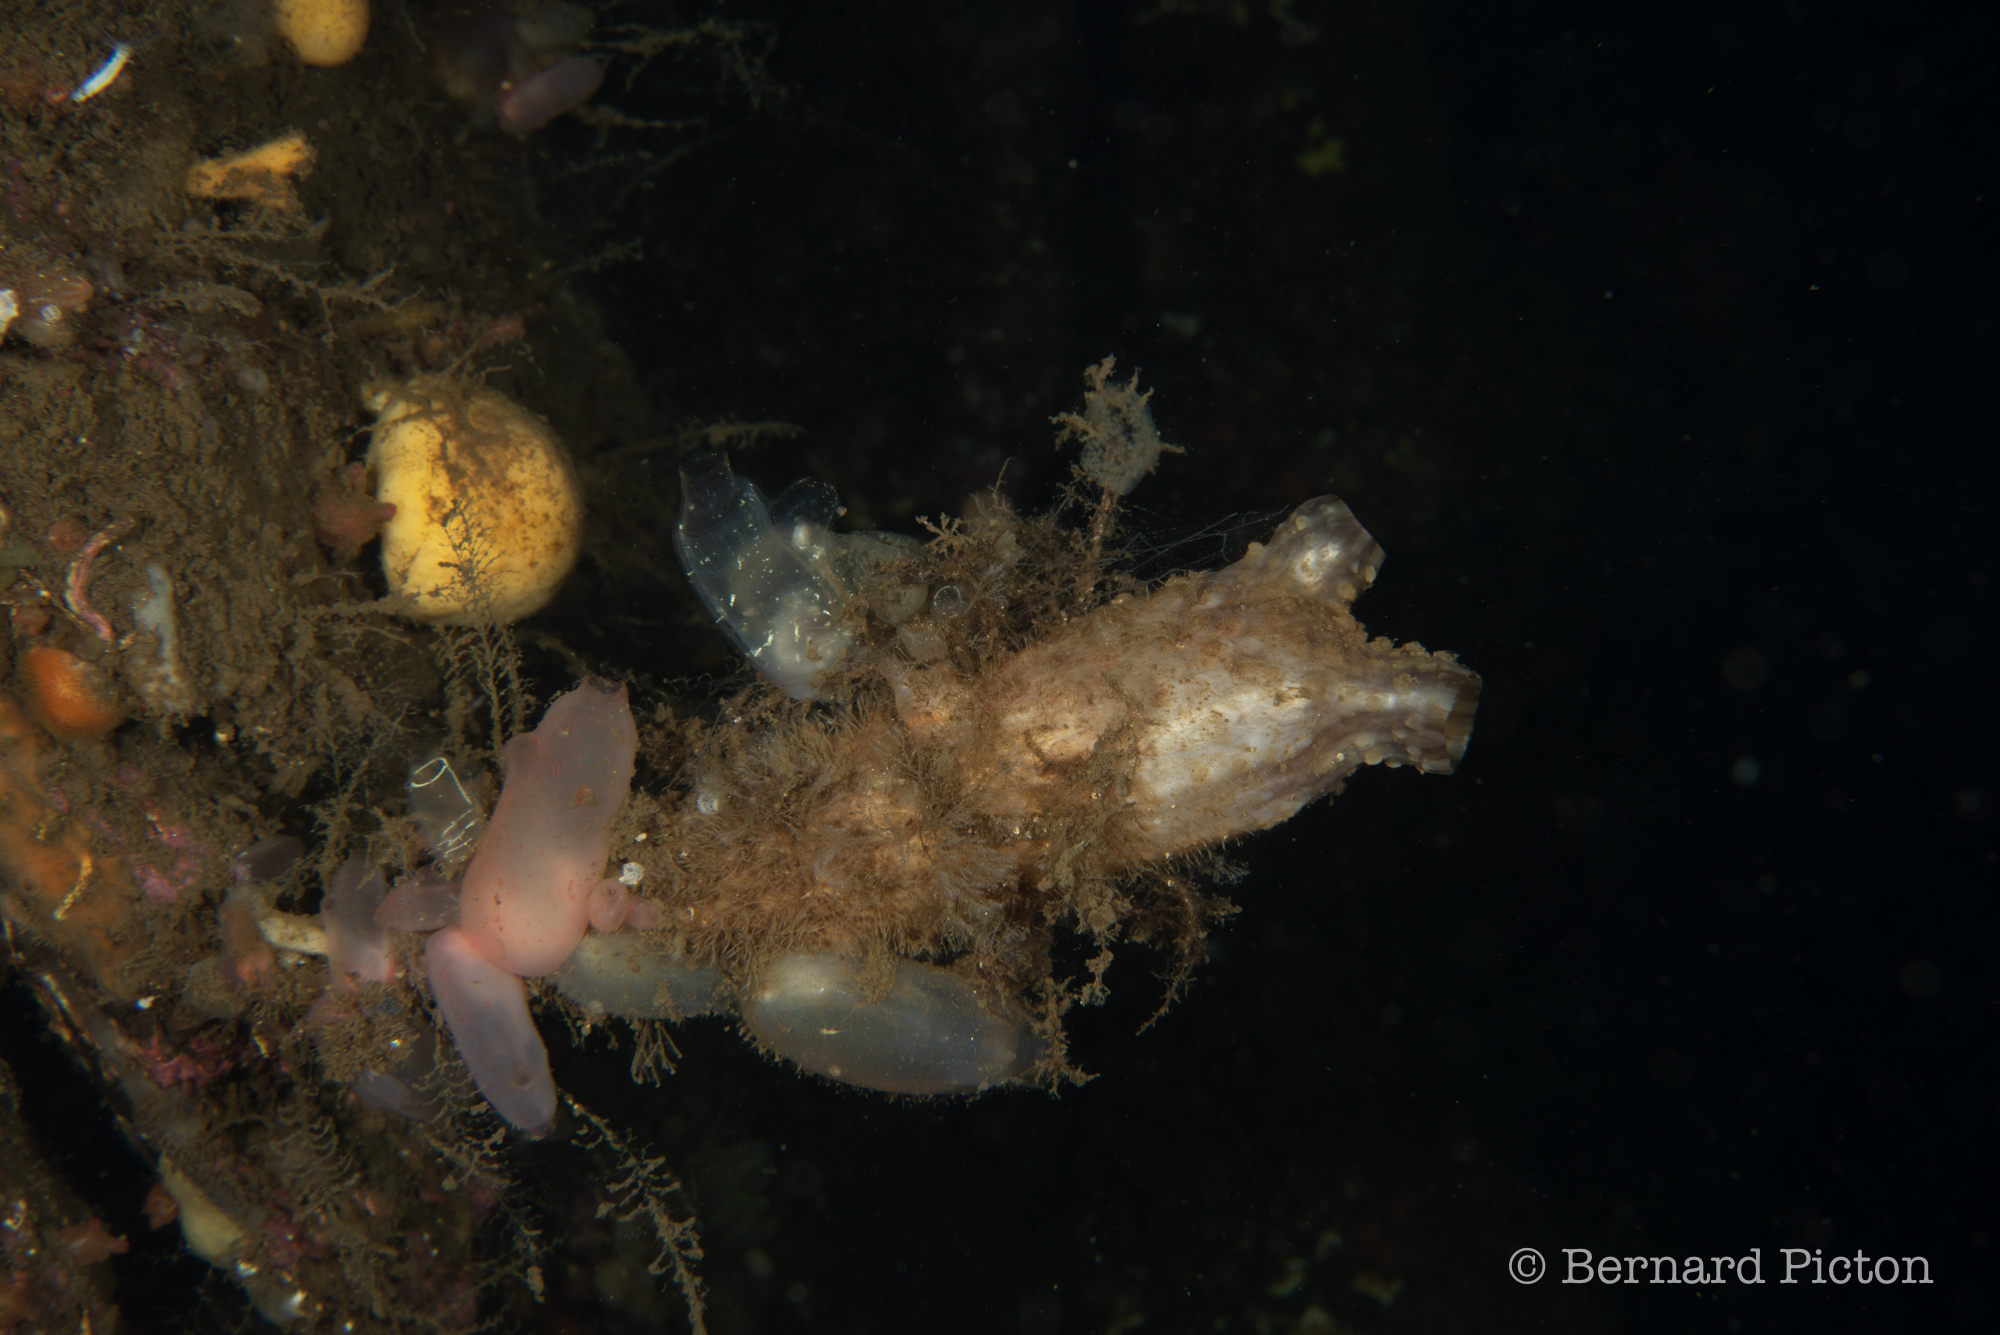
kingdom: Animalia
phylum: Chordata
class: Ascidiacea
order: Stolidobranchia
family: Styelidae
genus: Styela
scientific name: Styela clava
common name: Leathery sea squirt
